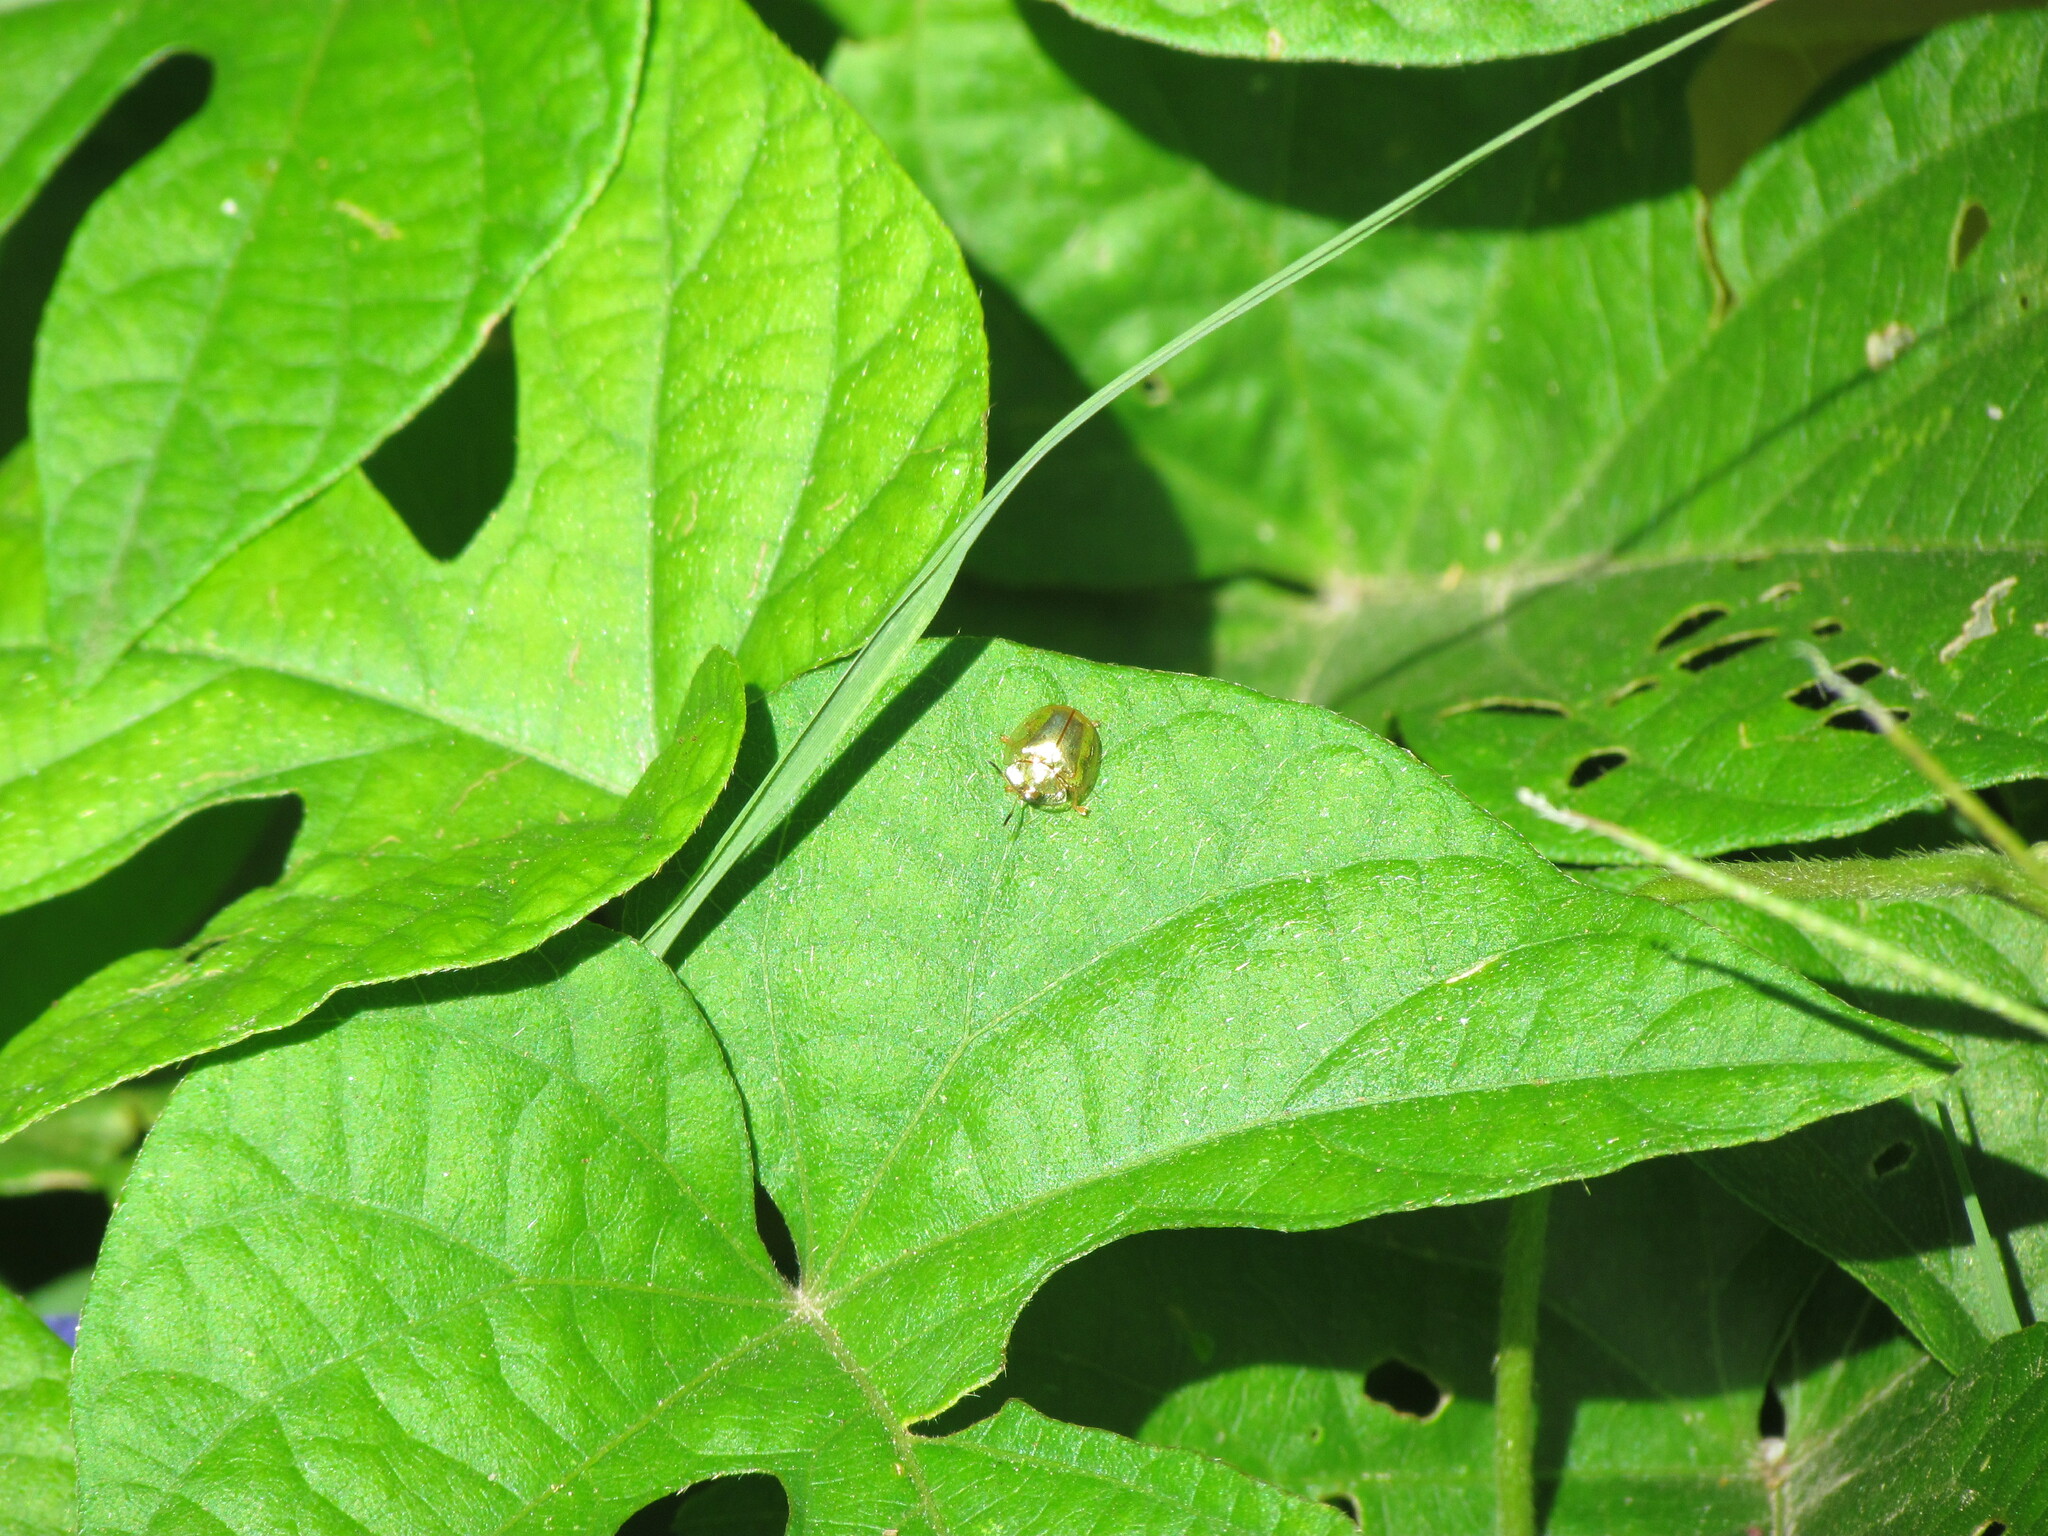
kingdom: Animalia
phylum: Arthropoda
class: Insecta
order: Coleoptera
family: Chrysomelidae
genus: Charidotella
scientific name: Charidotella sexpunctata
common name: Golden tortoise beetle
